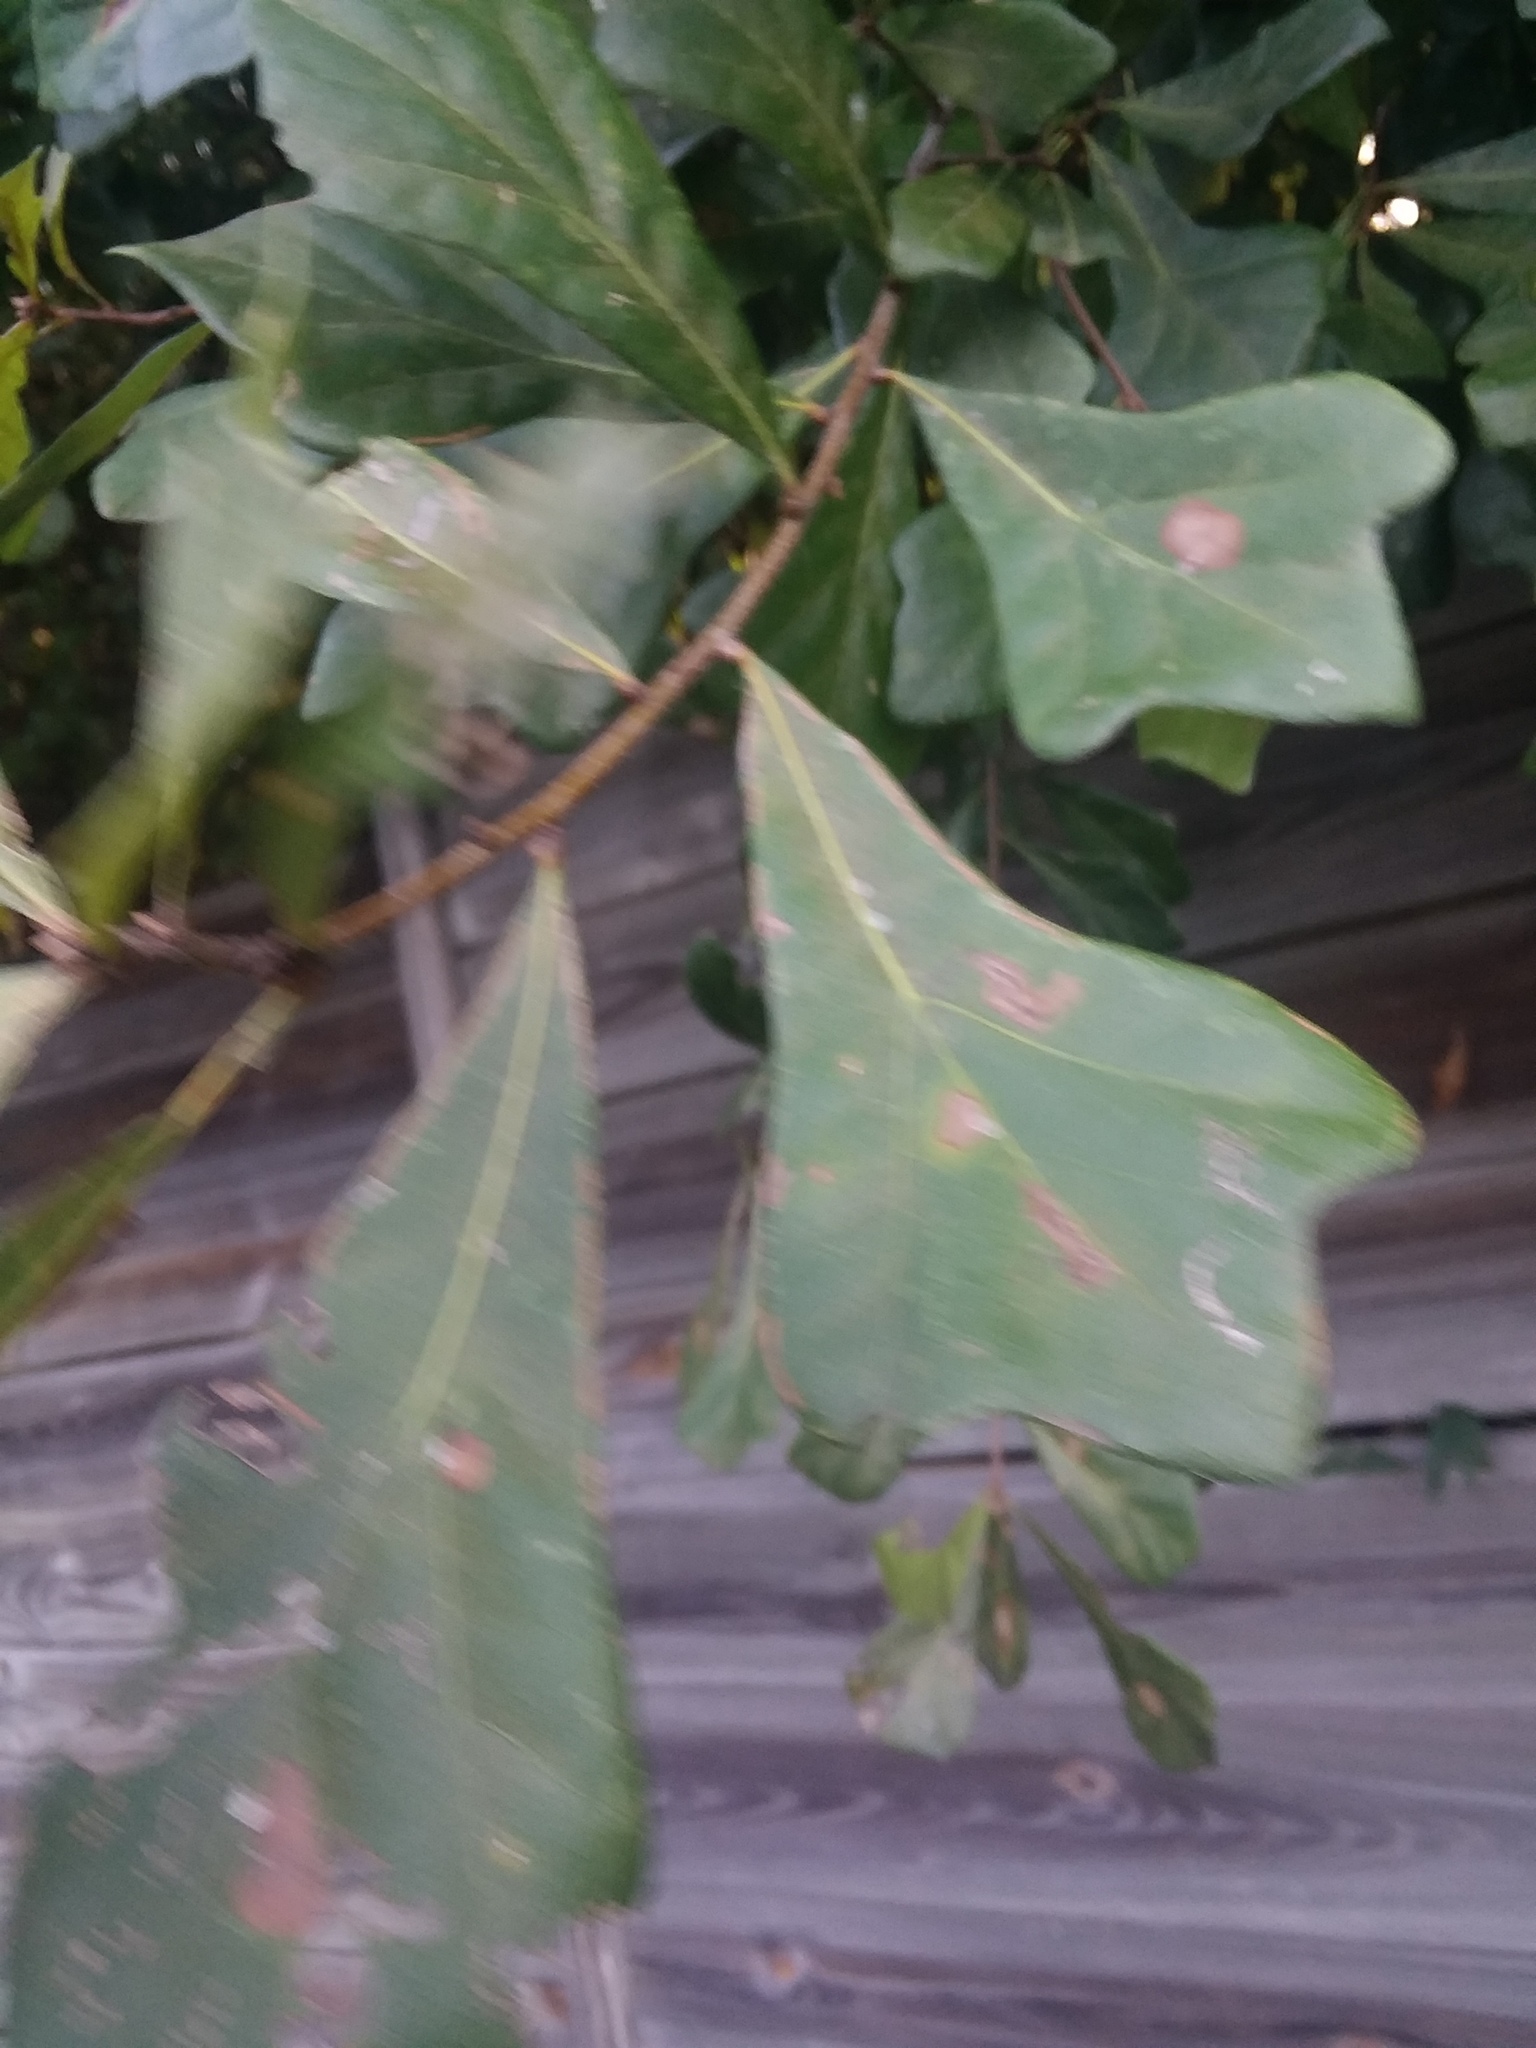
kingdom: Plantae
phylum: Tracheophyta
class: Magnoliopsida
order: Fagales
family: Fagaceae
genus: Quercus
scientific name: Quercus nigra
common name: Water oak
